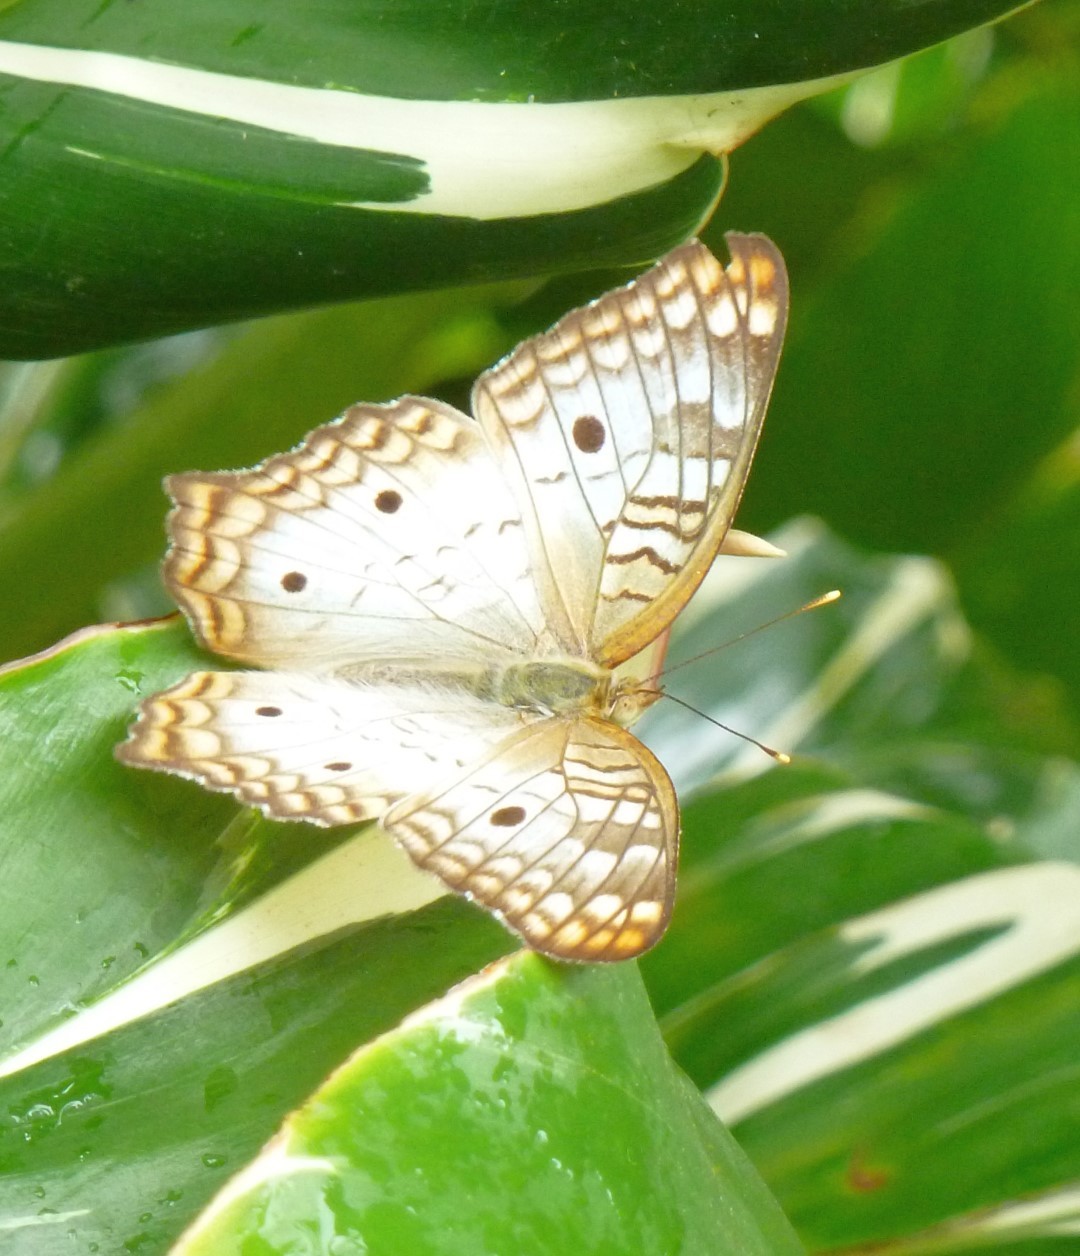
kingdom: Animalia
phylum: Arthropoda
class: Insecta
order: Lepidoptera
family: Nymphalidae
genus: Anartia
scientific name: Anartia jatrophae
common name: White peacock
